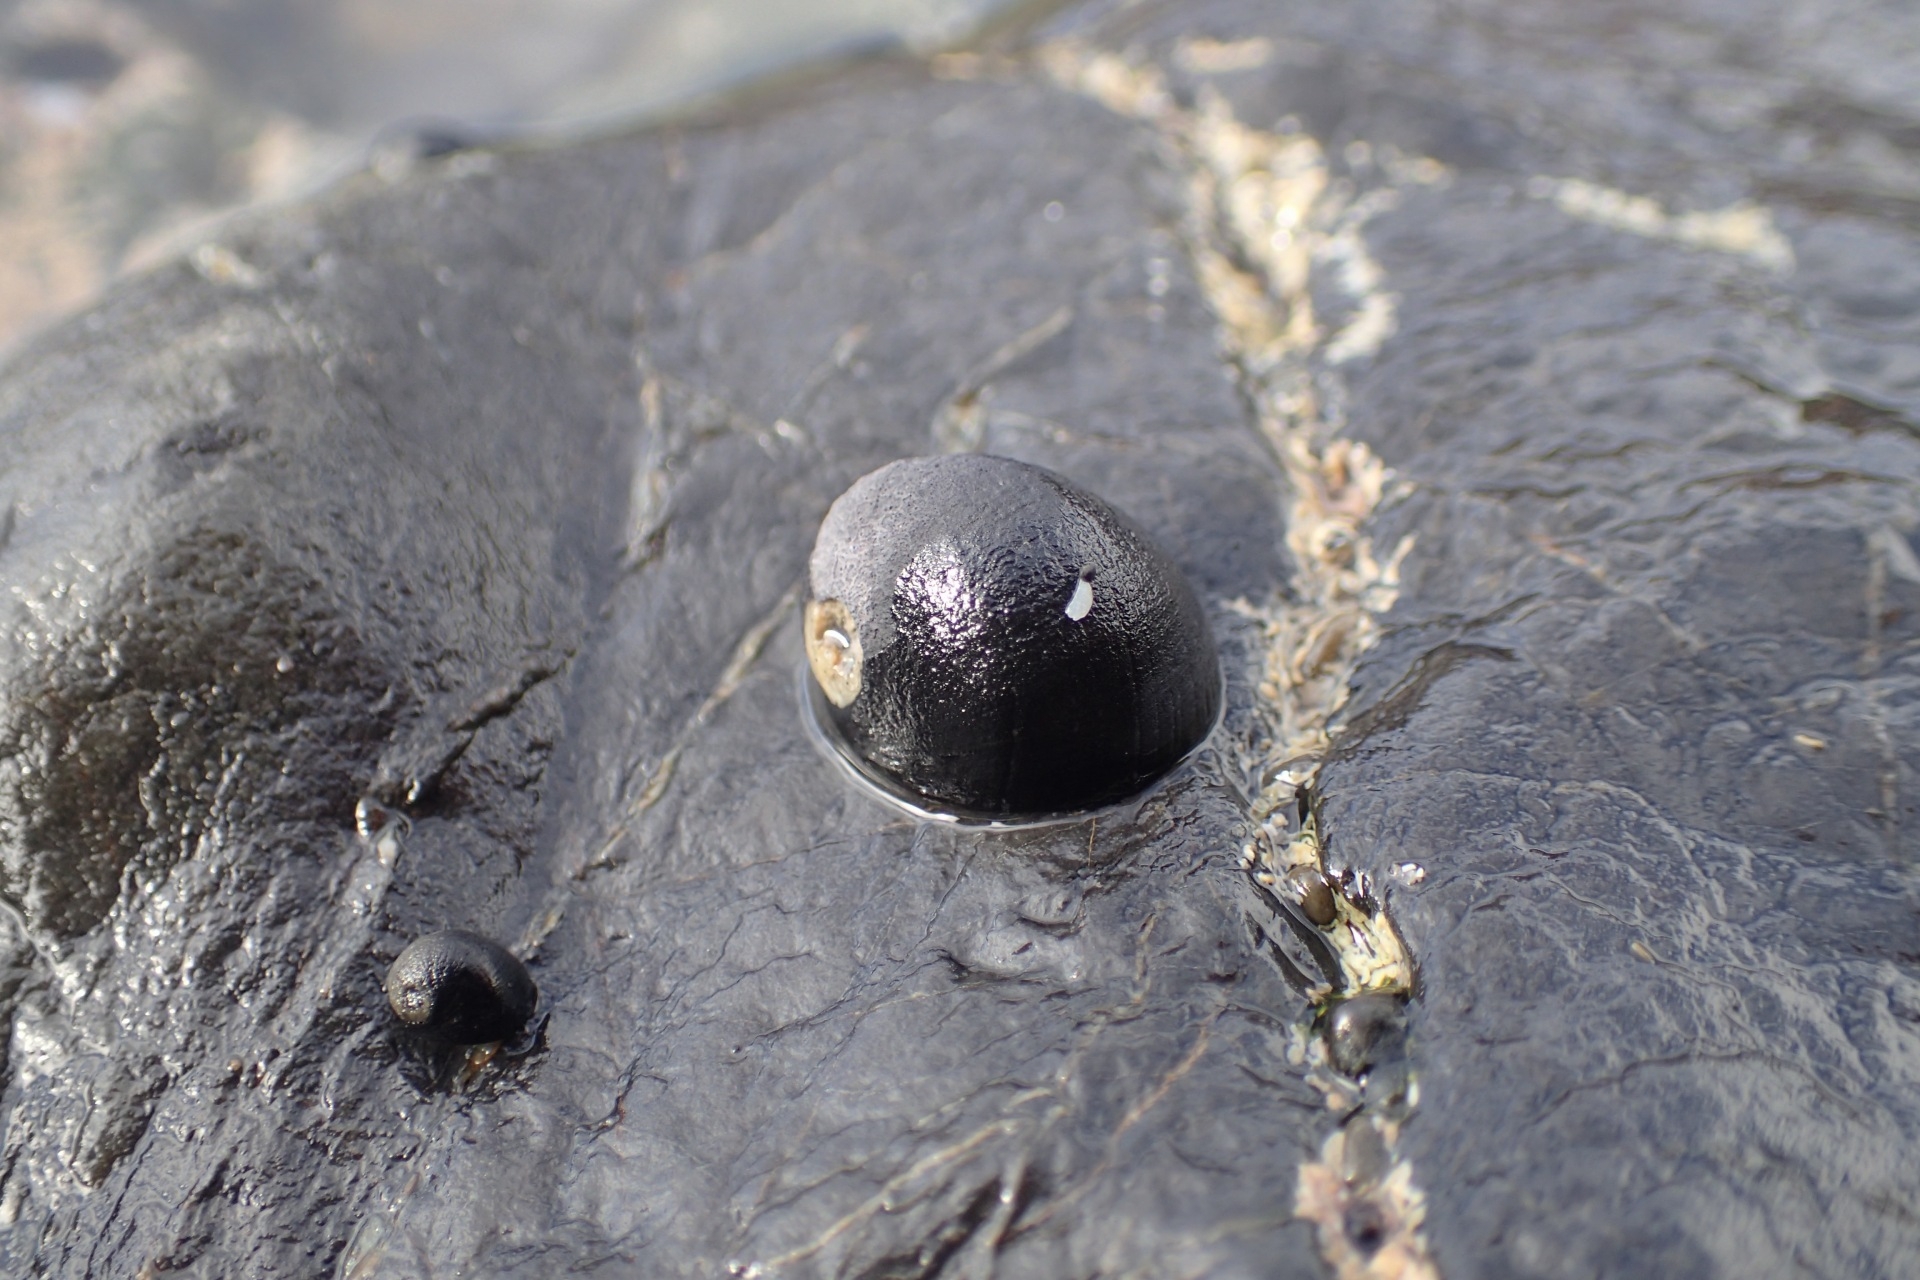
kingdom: Animalia
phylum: Mollusca
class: Gastropoda
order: Cycloneritida
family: Neritidae
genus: Nerita
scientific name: Nerita melanotragus
